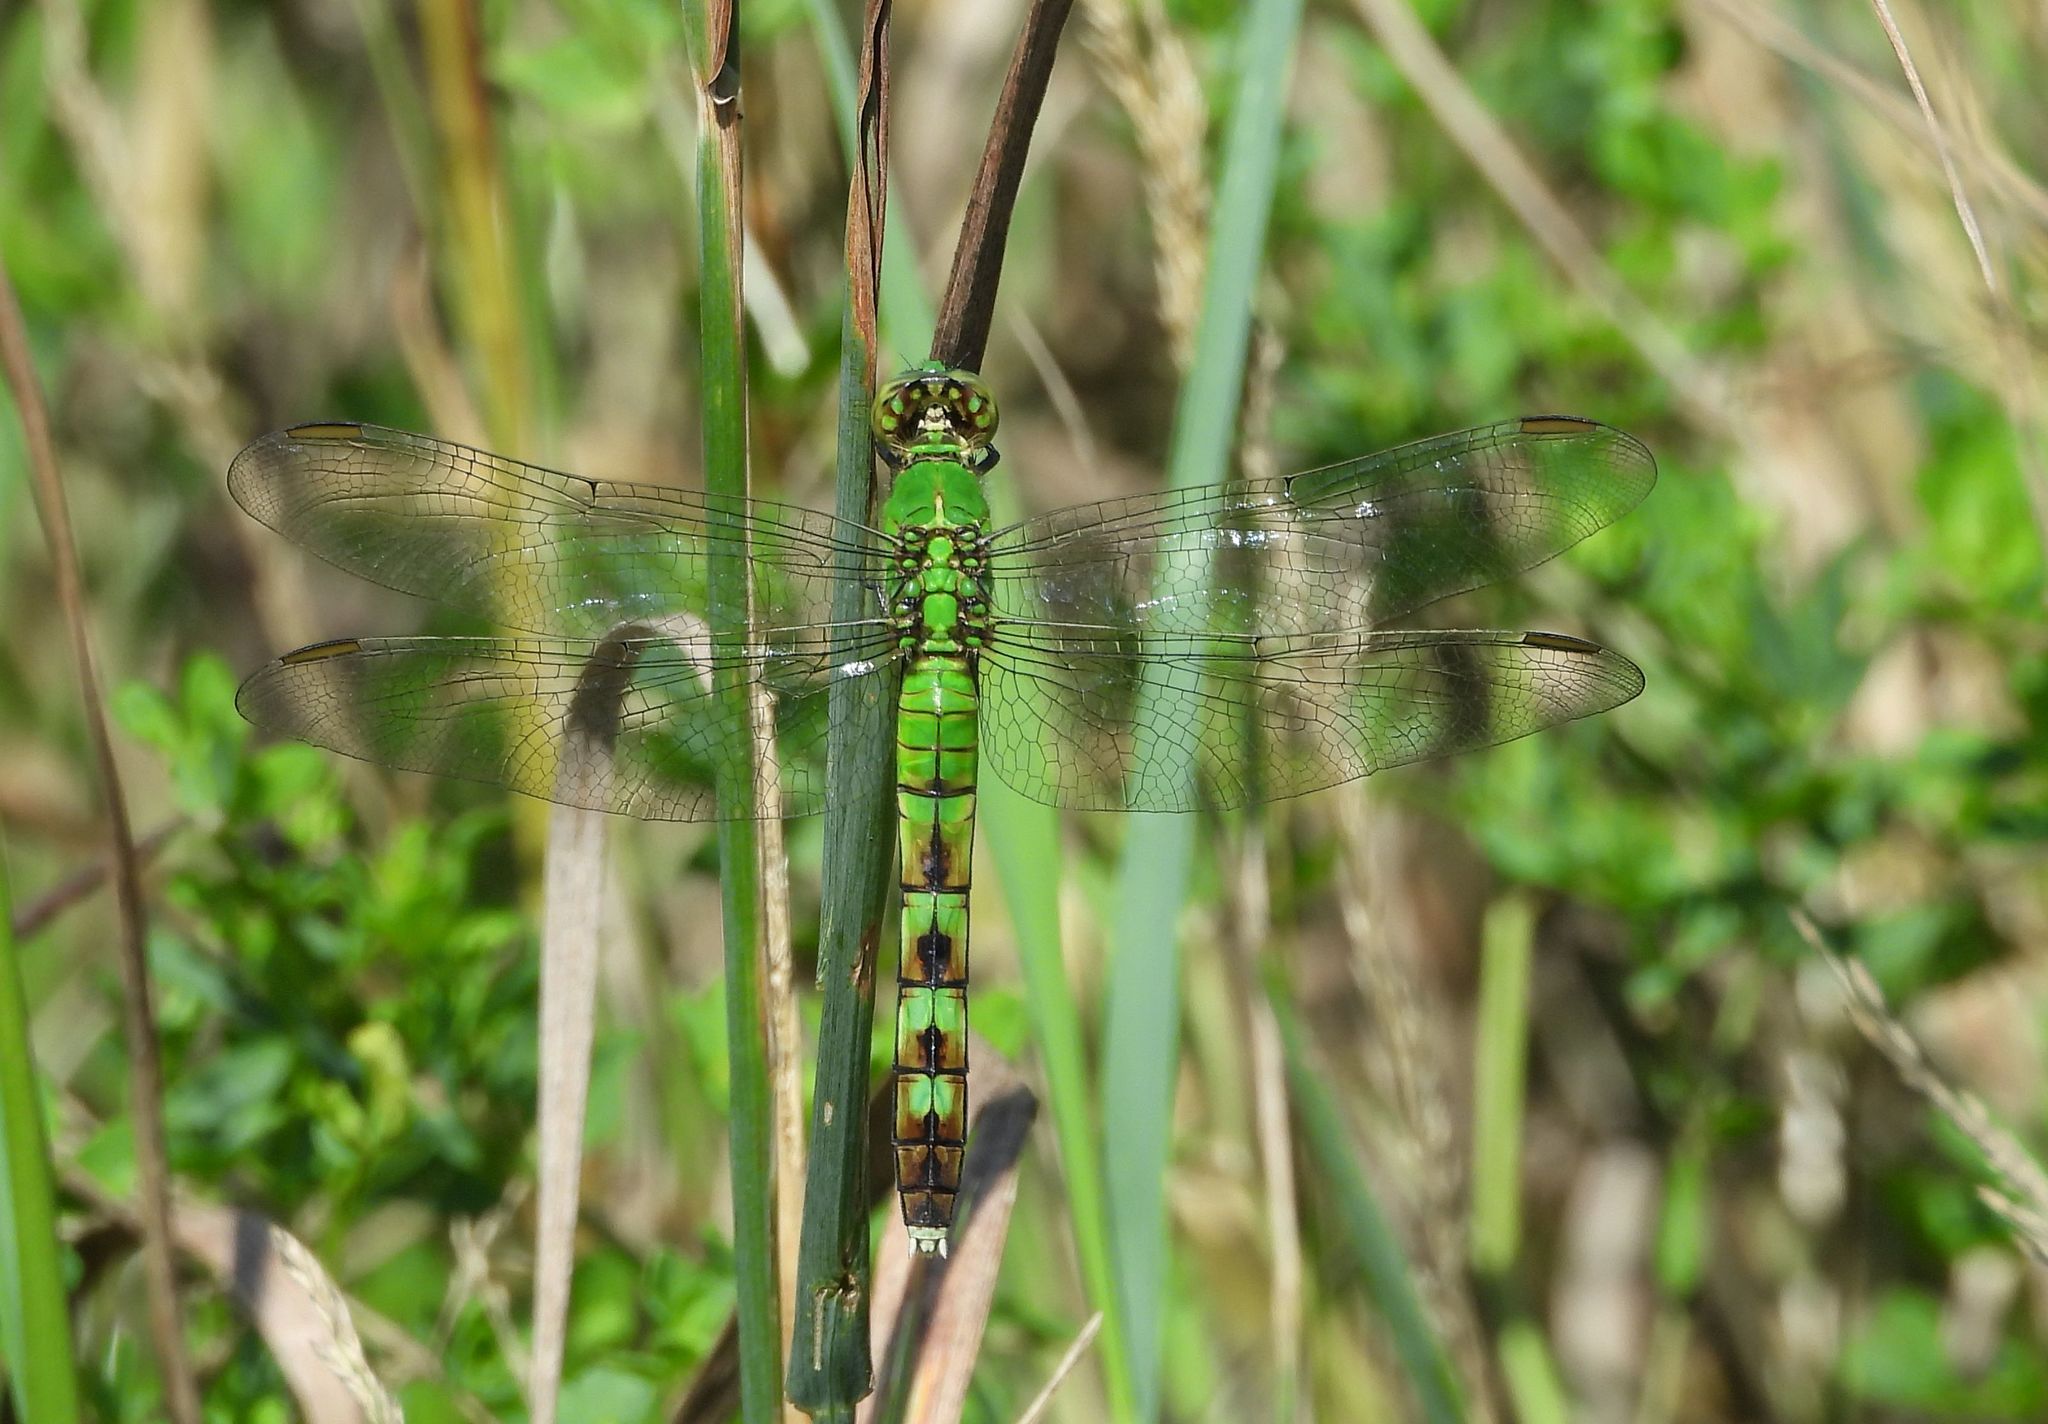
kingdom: Animalia
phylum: Arthropoda
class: Insecta
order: Odonata
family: Libellulidae
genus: Erythemis
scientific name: Erythemis simplicicollis
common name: Eastern pondhawk
